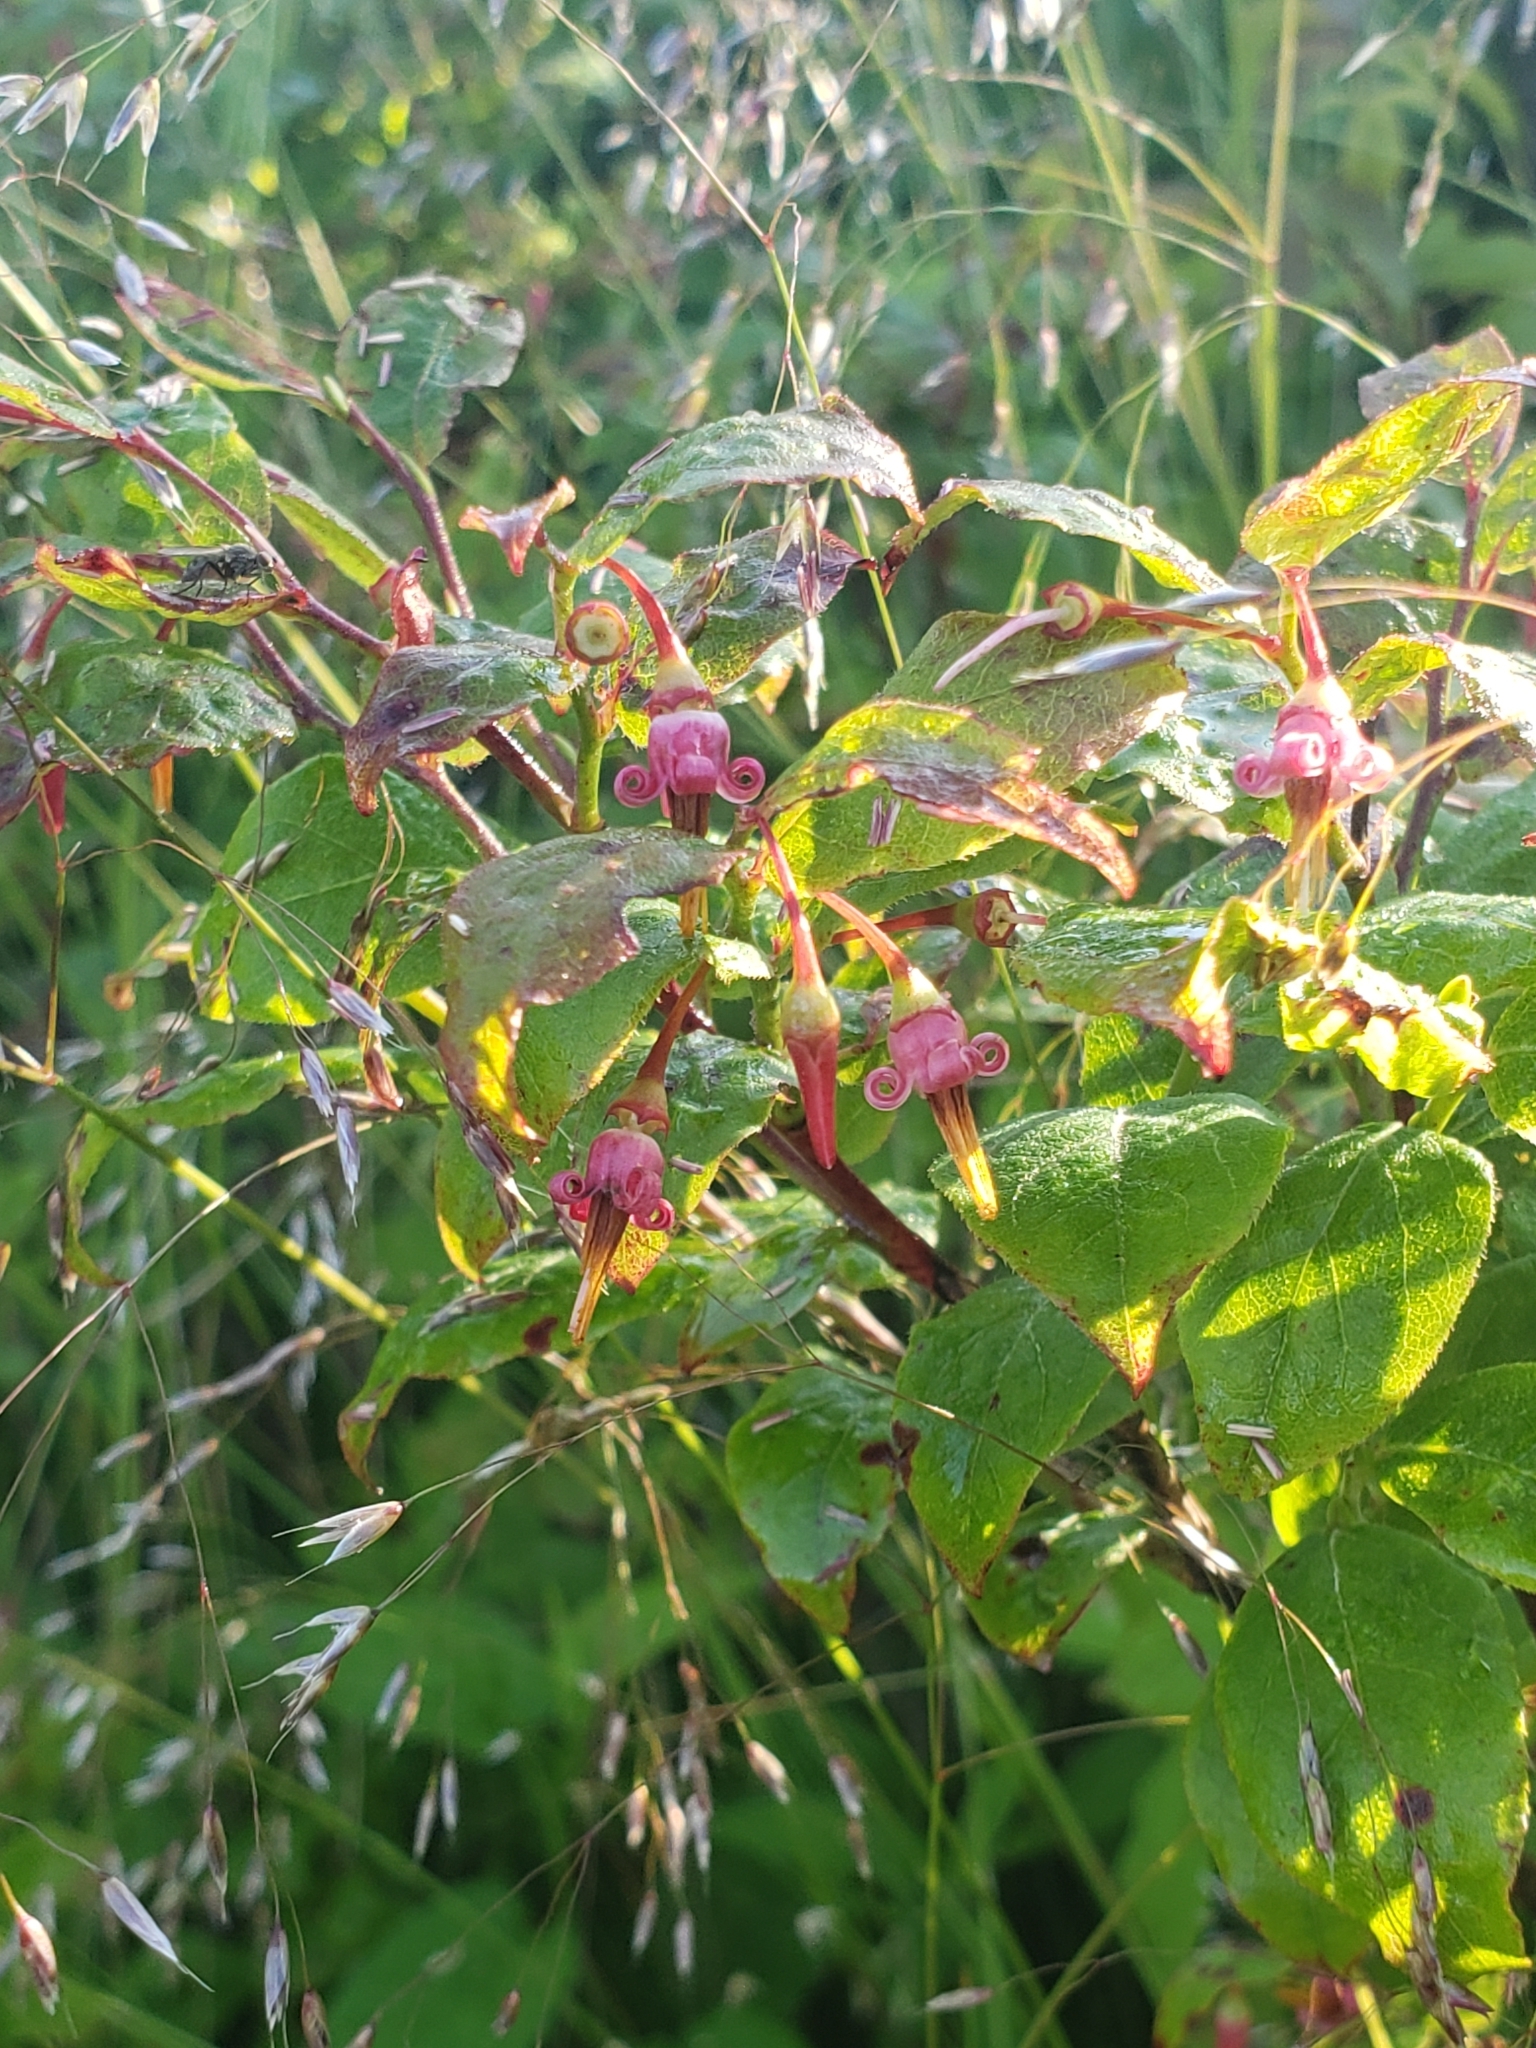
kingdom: Plantae
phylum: Tracheophyta
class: Magnoliopsida
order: Ericales
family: Ericaceae
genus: Vaccinium
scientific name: Vaccinium erythrocarpum
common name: Bearberry
